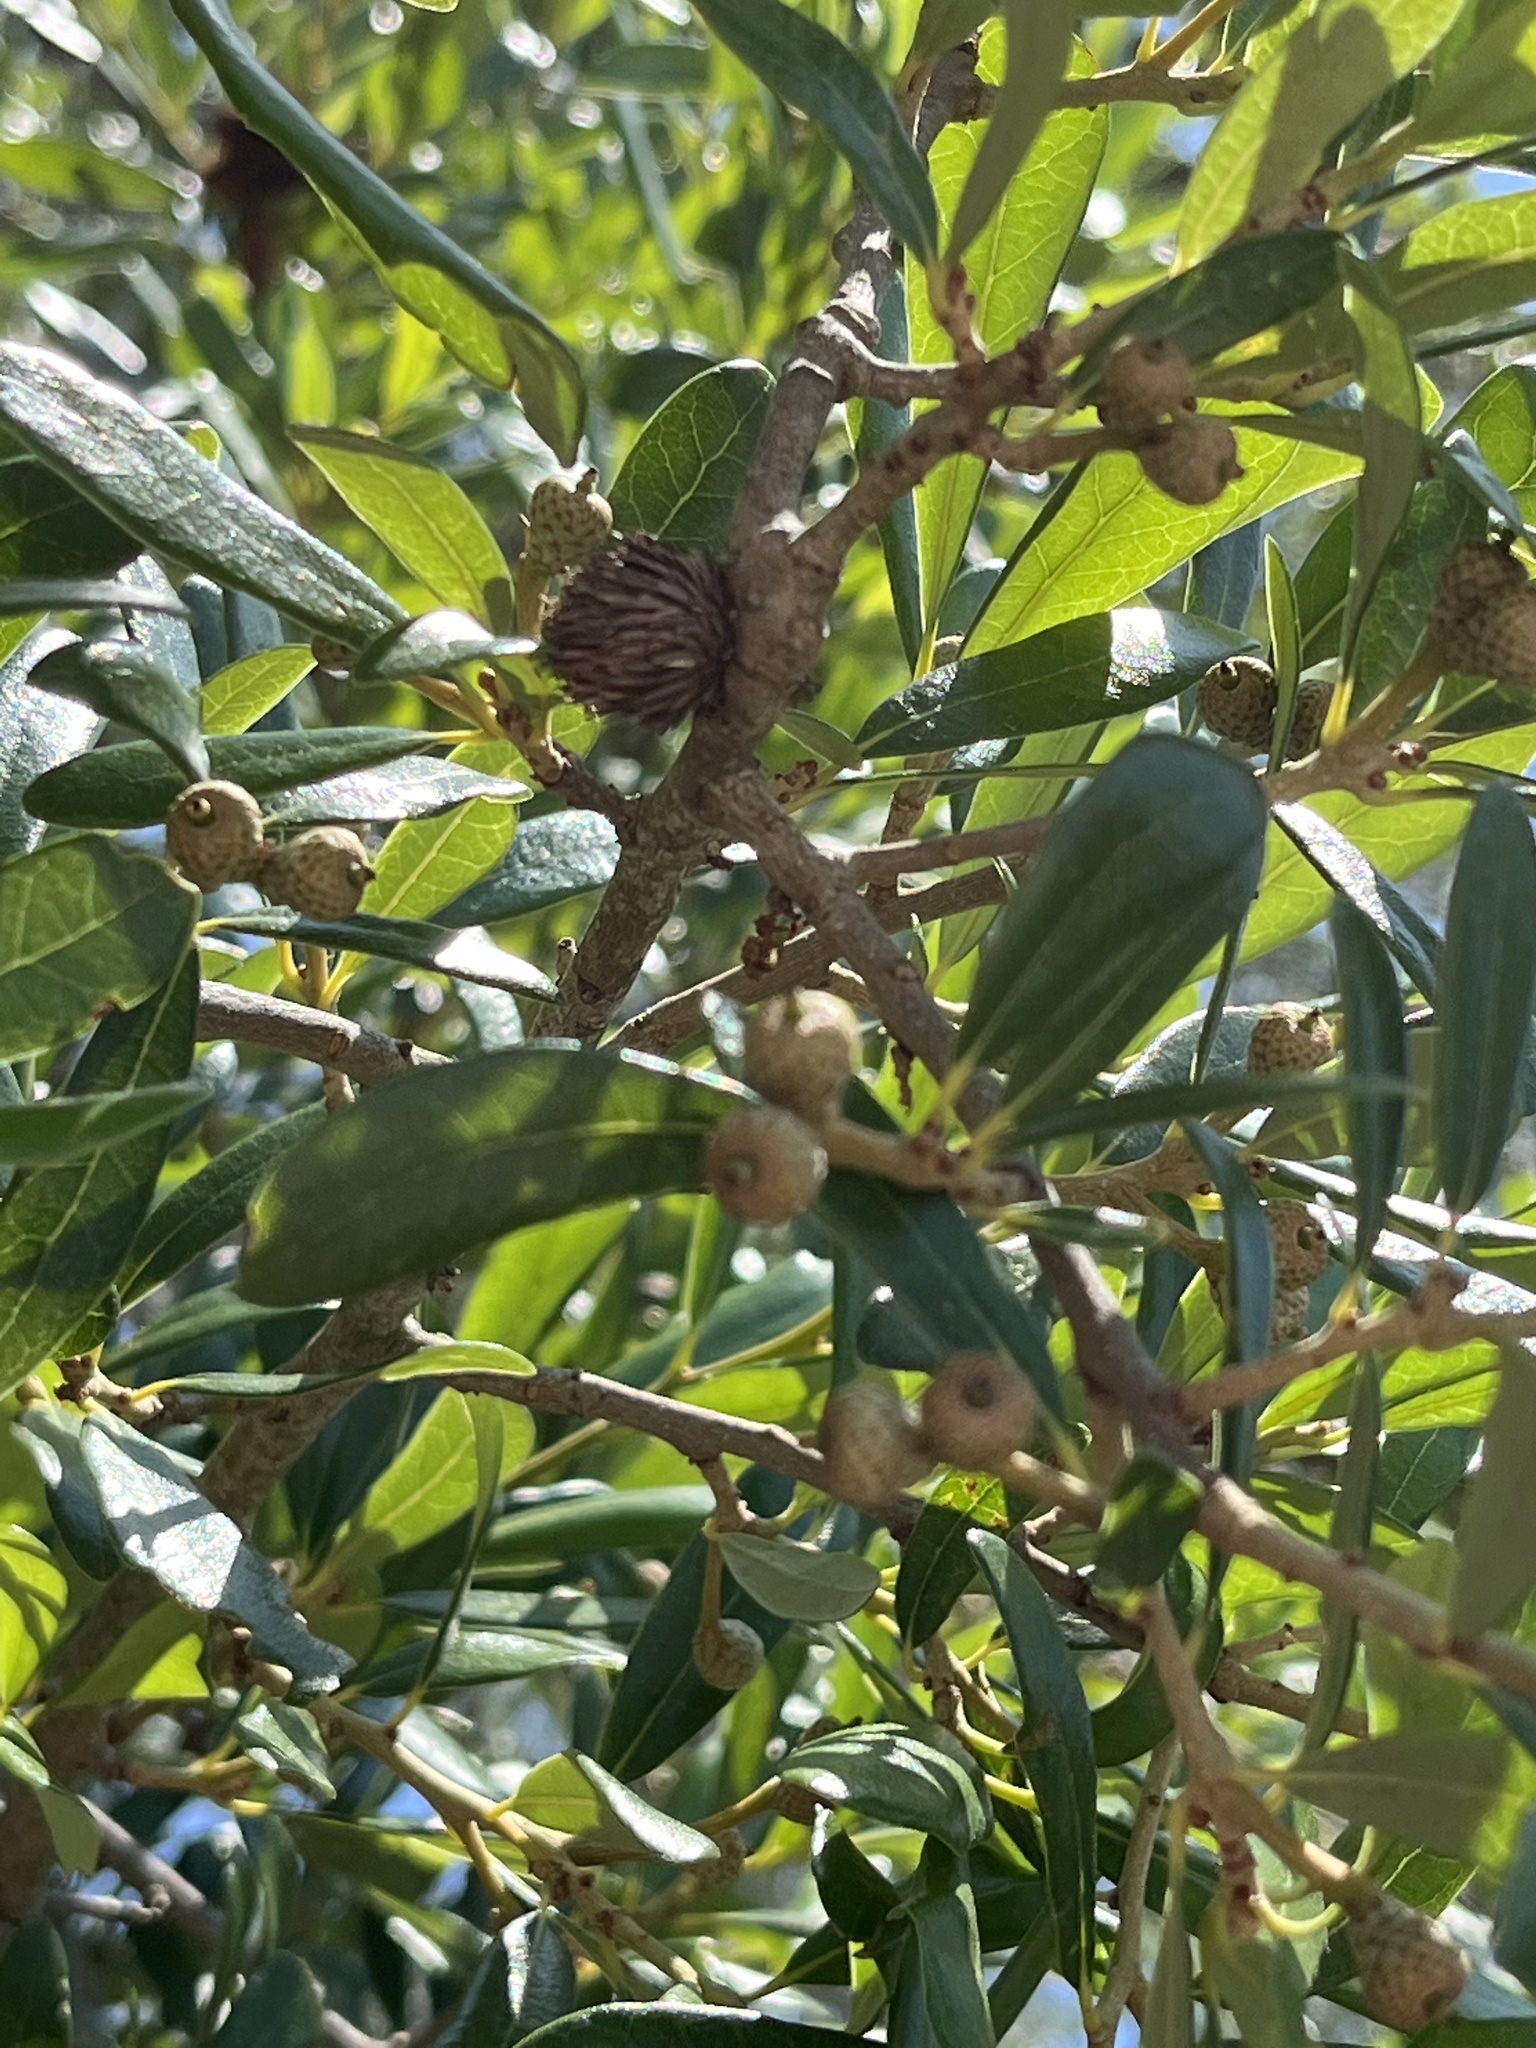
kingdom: Animalia
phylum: Arthropoda
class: Insecta
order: Hymenoptera
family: Cynipidae
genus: Andricus
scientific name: Andricus quercusfoliatus
